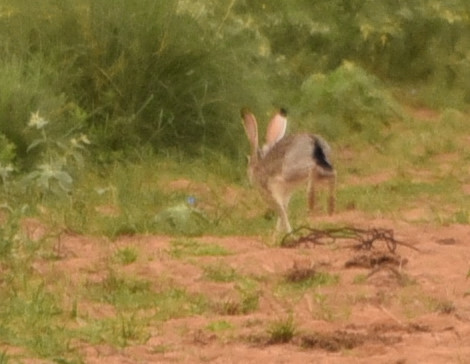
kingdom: Animalia
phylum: Chordata
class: Mammalia
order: Lagomorpha
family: Leporidae
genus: Lepus
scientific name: Lepus californicus
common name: Black-tailed jackrabbit
